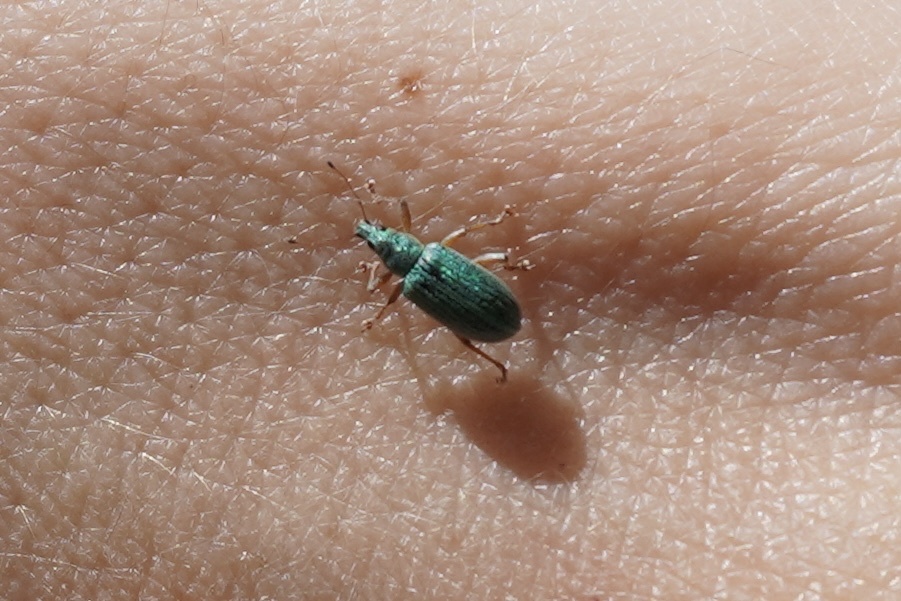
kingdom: Animalia
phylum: Arthropoda
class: Insecta
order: Coleoptera
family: Curculionidae
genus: Polydrusus
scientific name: Polydrusus formosus
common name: Weevil
